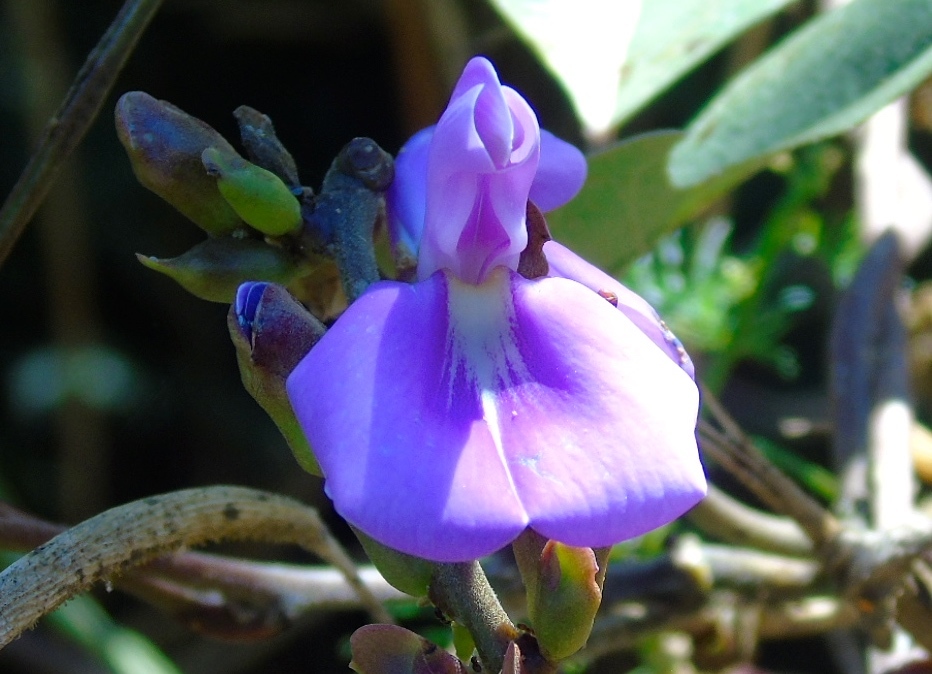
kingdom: Plantae
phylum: Tracheophyta
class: Magnoliopsida
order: Fabales
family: Fabaceae
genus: Canavalia
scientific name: Canavalia brasiliensis
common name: Barbicou-bean
